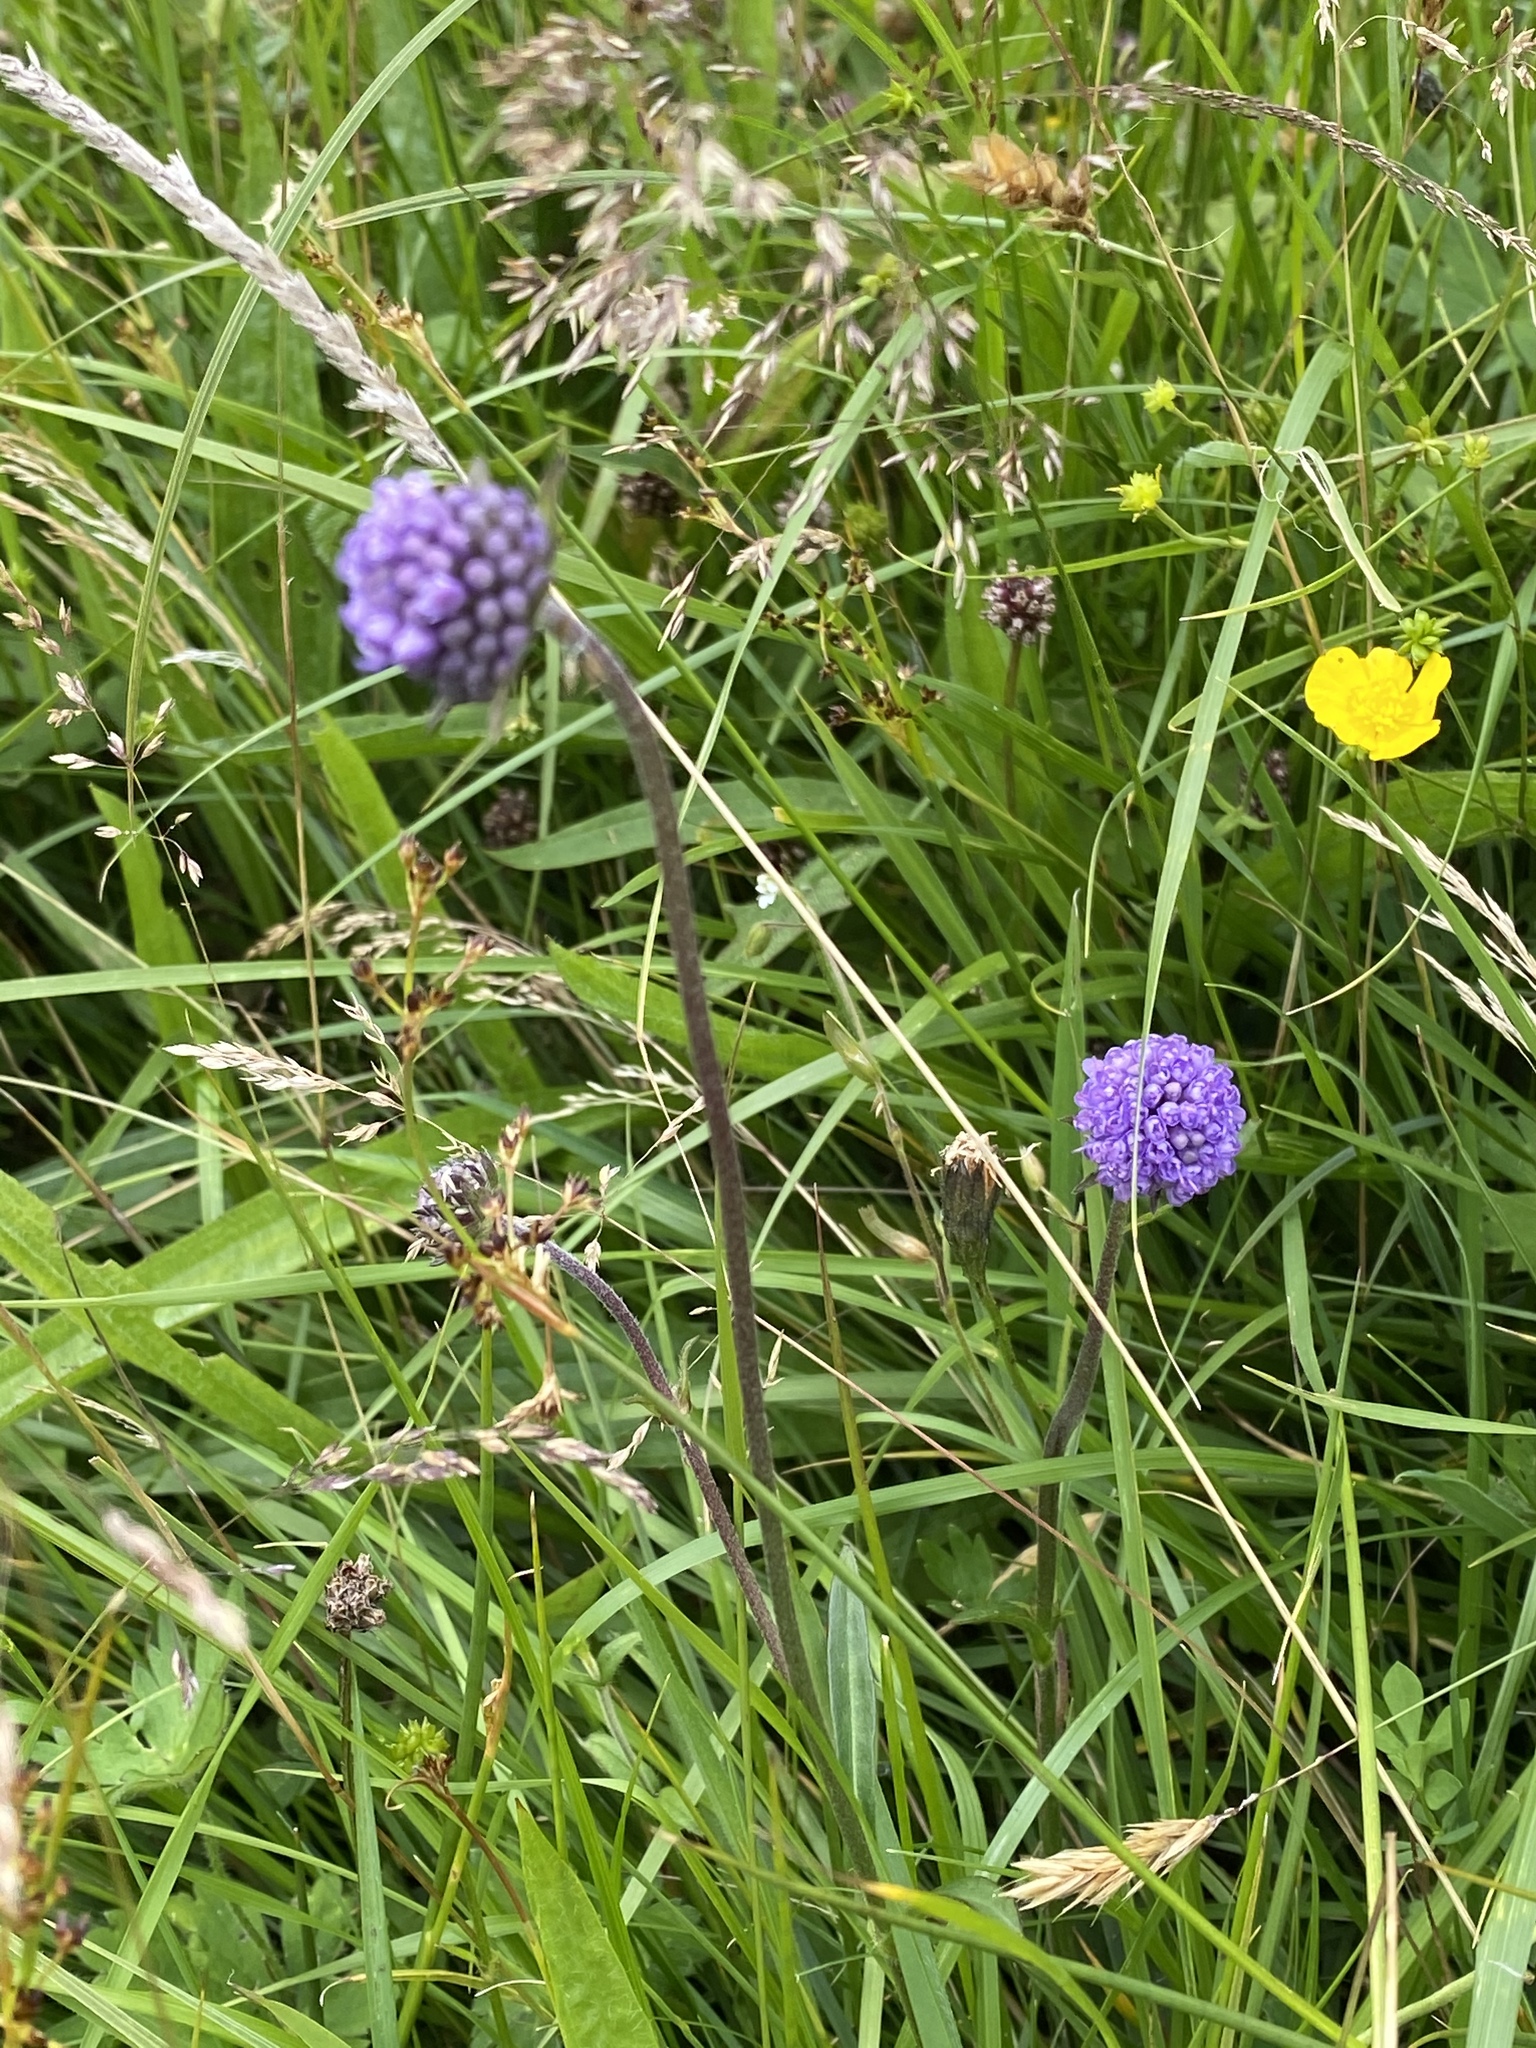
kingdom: Plantae
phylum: Tracheophyta
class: Magnoliopsida
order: Dipsacales
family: Caprifoliaceae
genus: Succisa
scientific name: Succisa pratensis
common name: Devil's-bit
